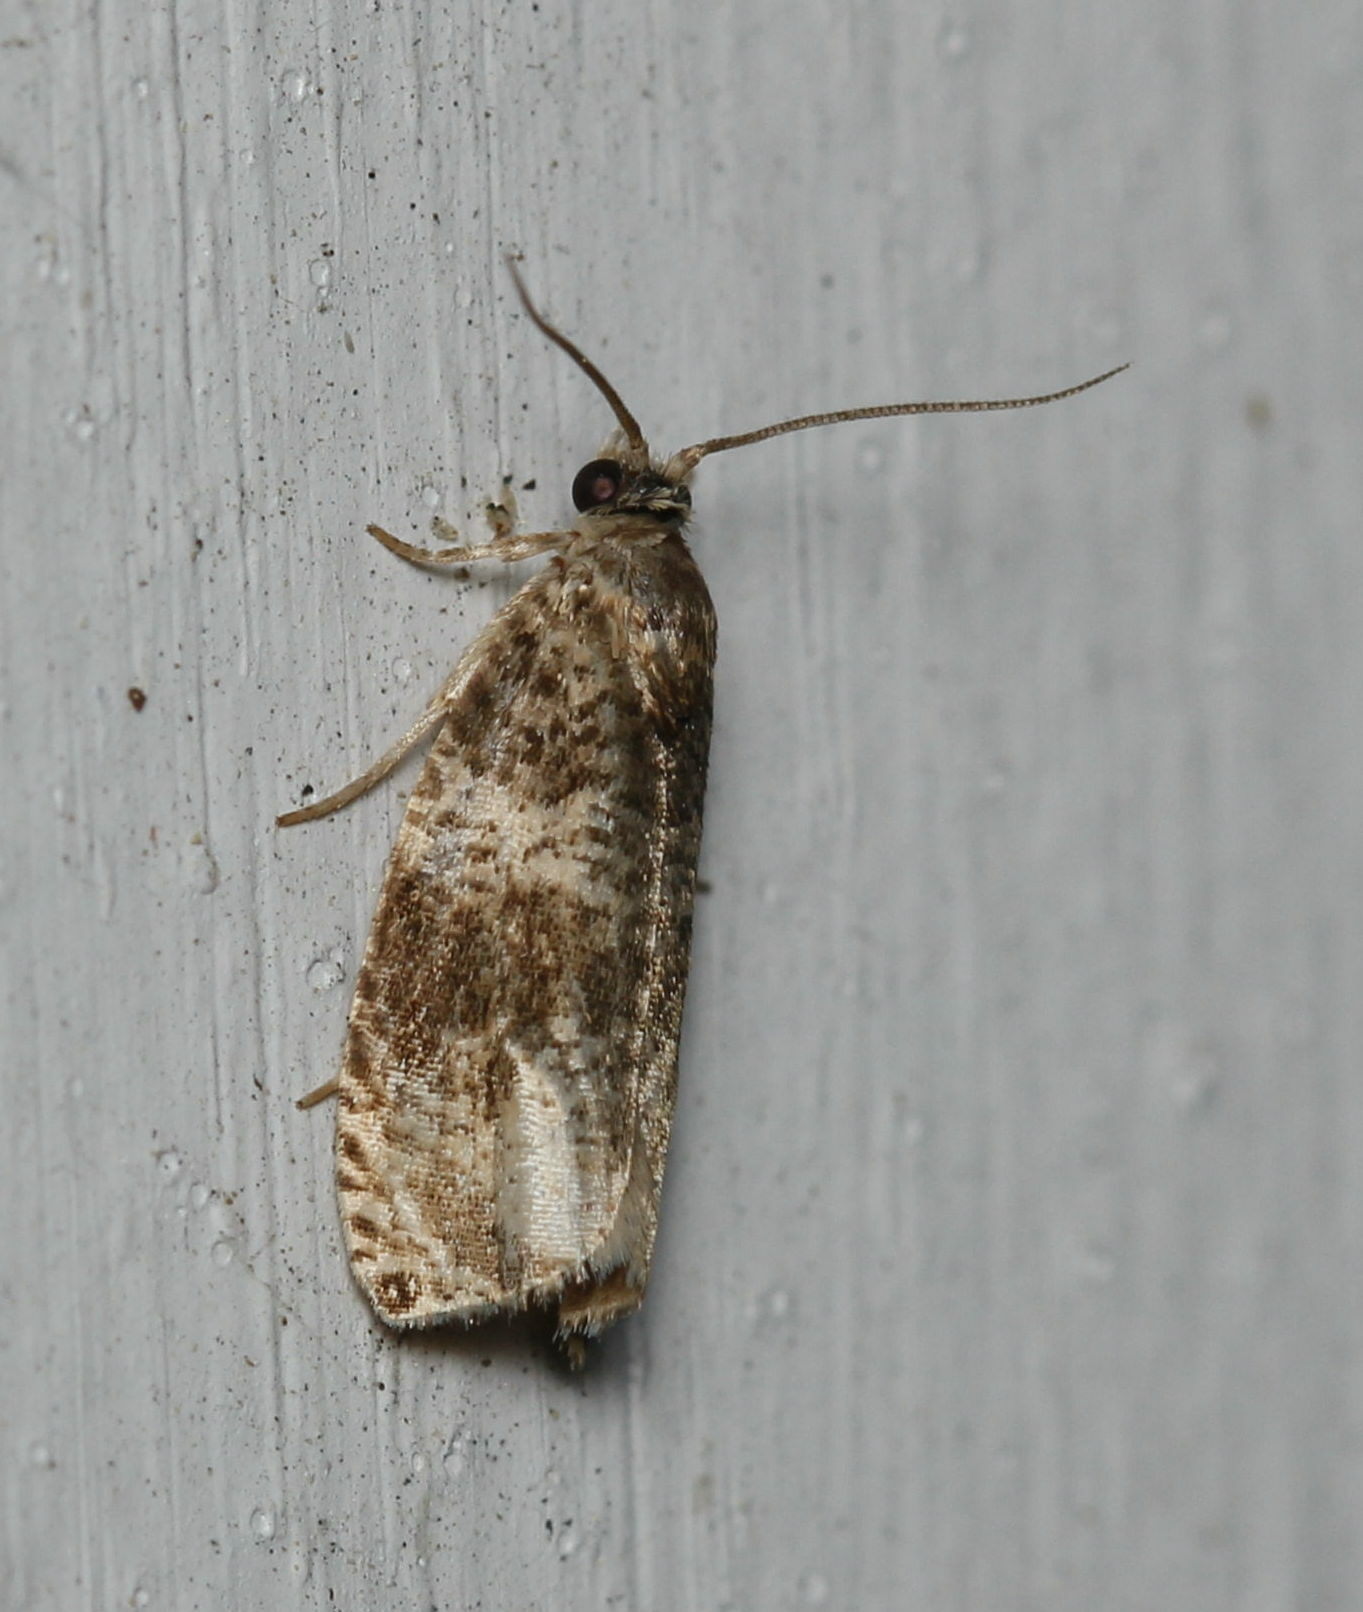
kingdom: Animalia
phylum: Arthropoda
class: Insecta
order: Lepidoptera
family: Tortricidae
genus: Olethreutes
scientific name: Olethreutes appendiceum
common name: Serviceberry leafroller
